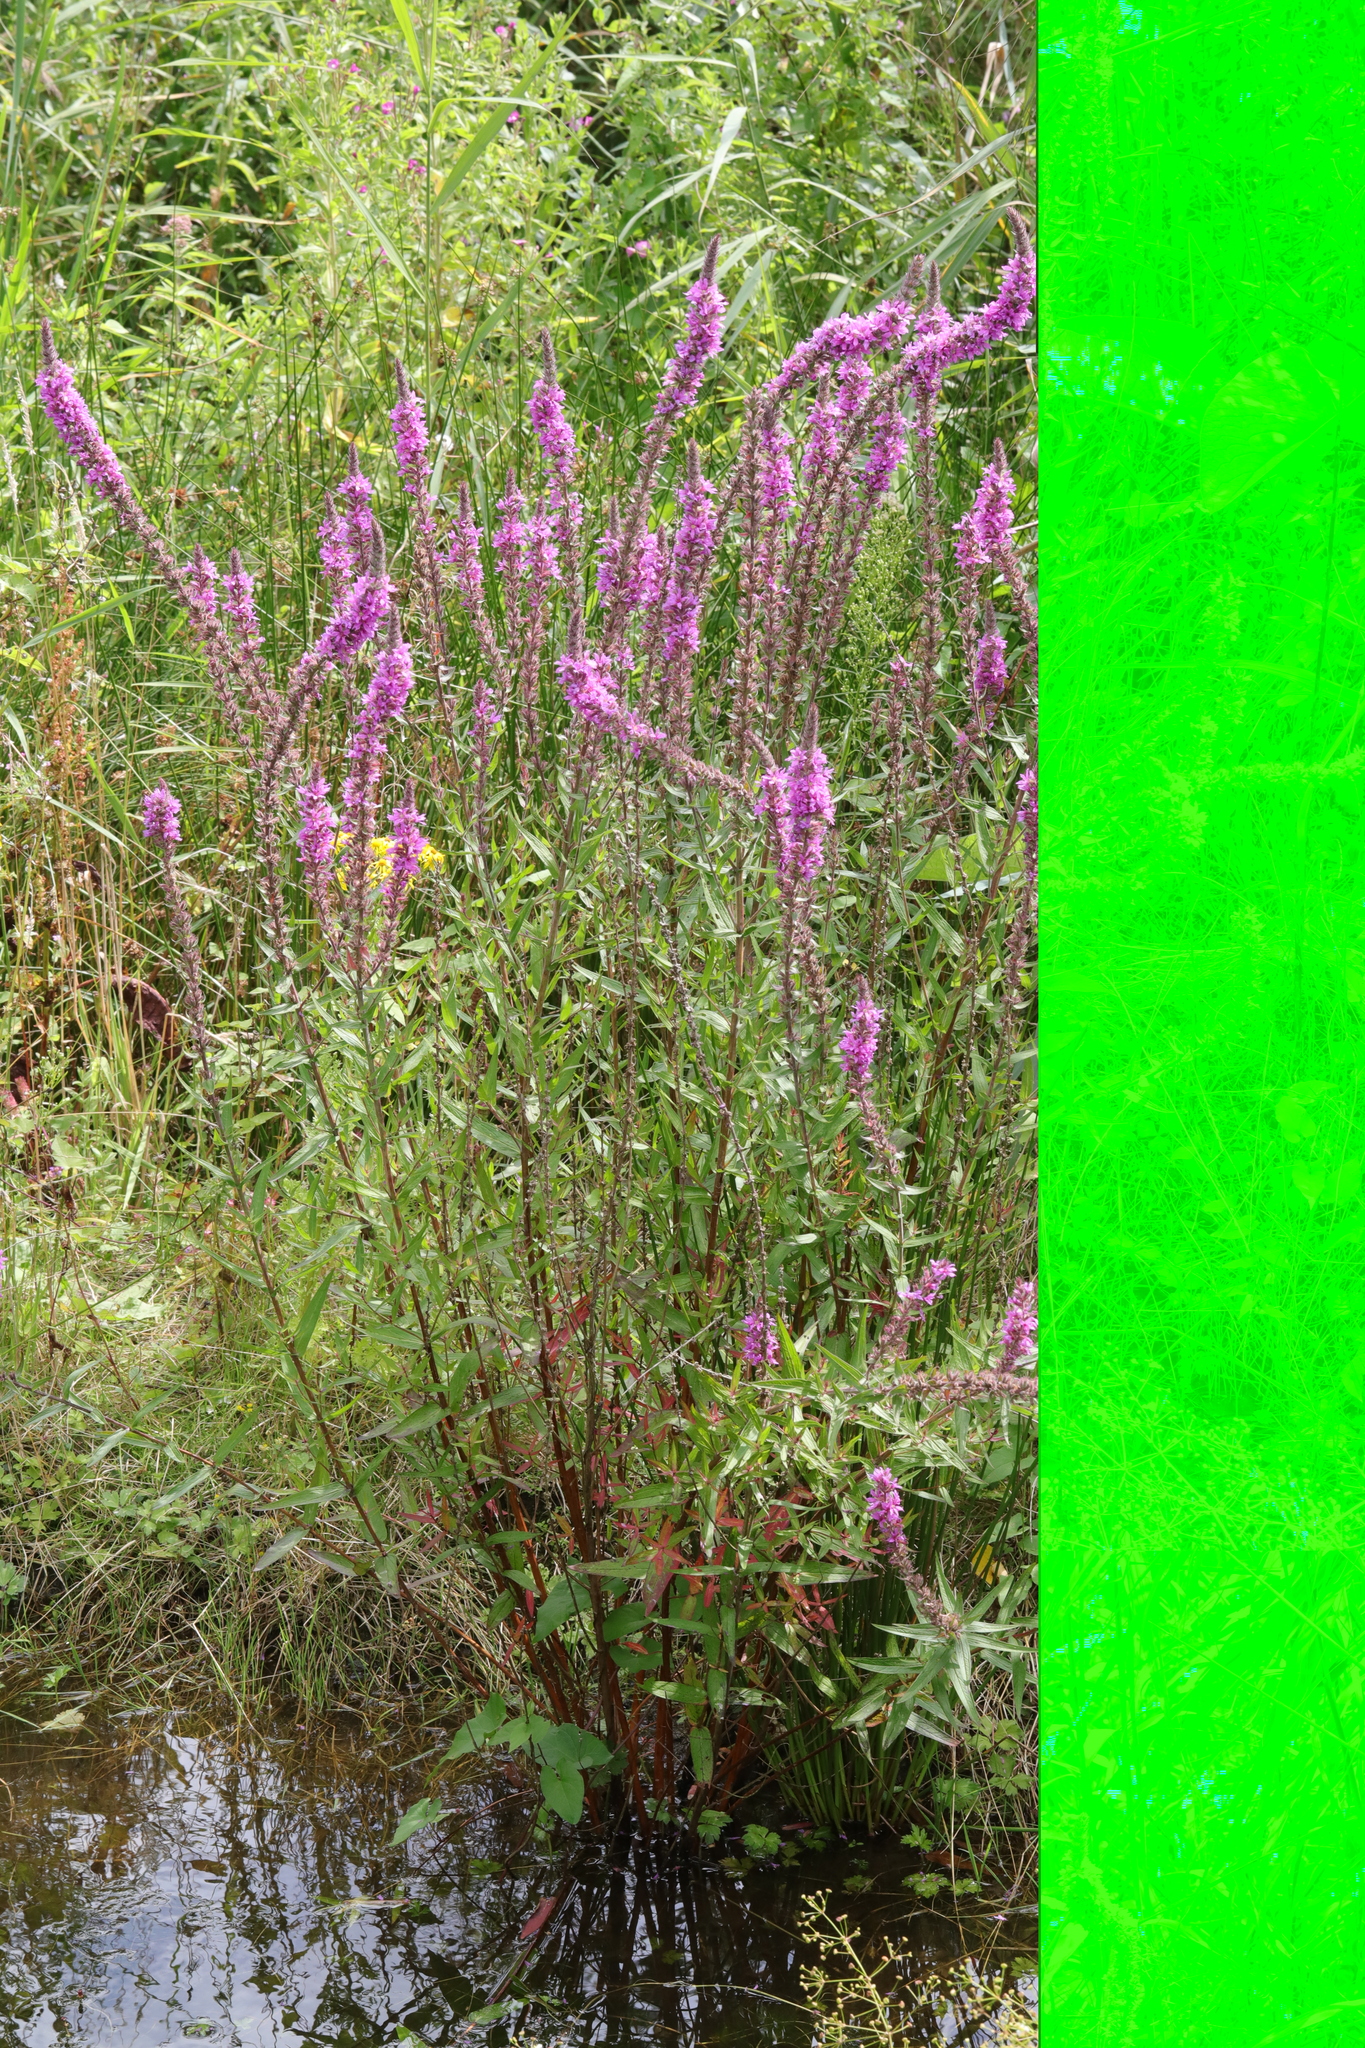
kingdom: Plantae
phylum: Tracheophyta
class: Magnoliopsida
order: Myrtales
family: Lythraceae
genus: Lythrum
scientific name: Lythrum salicaria
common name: Purple loosestrife
